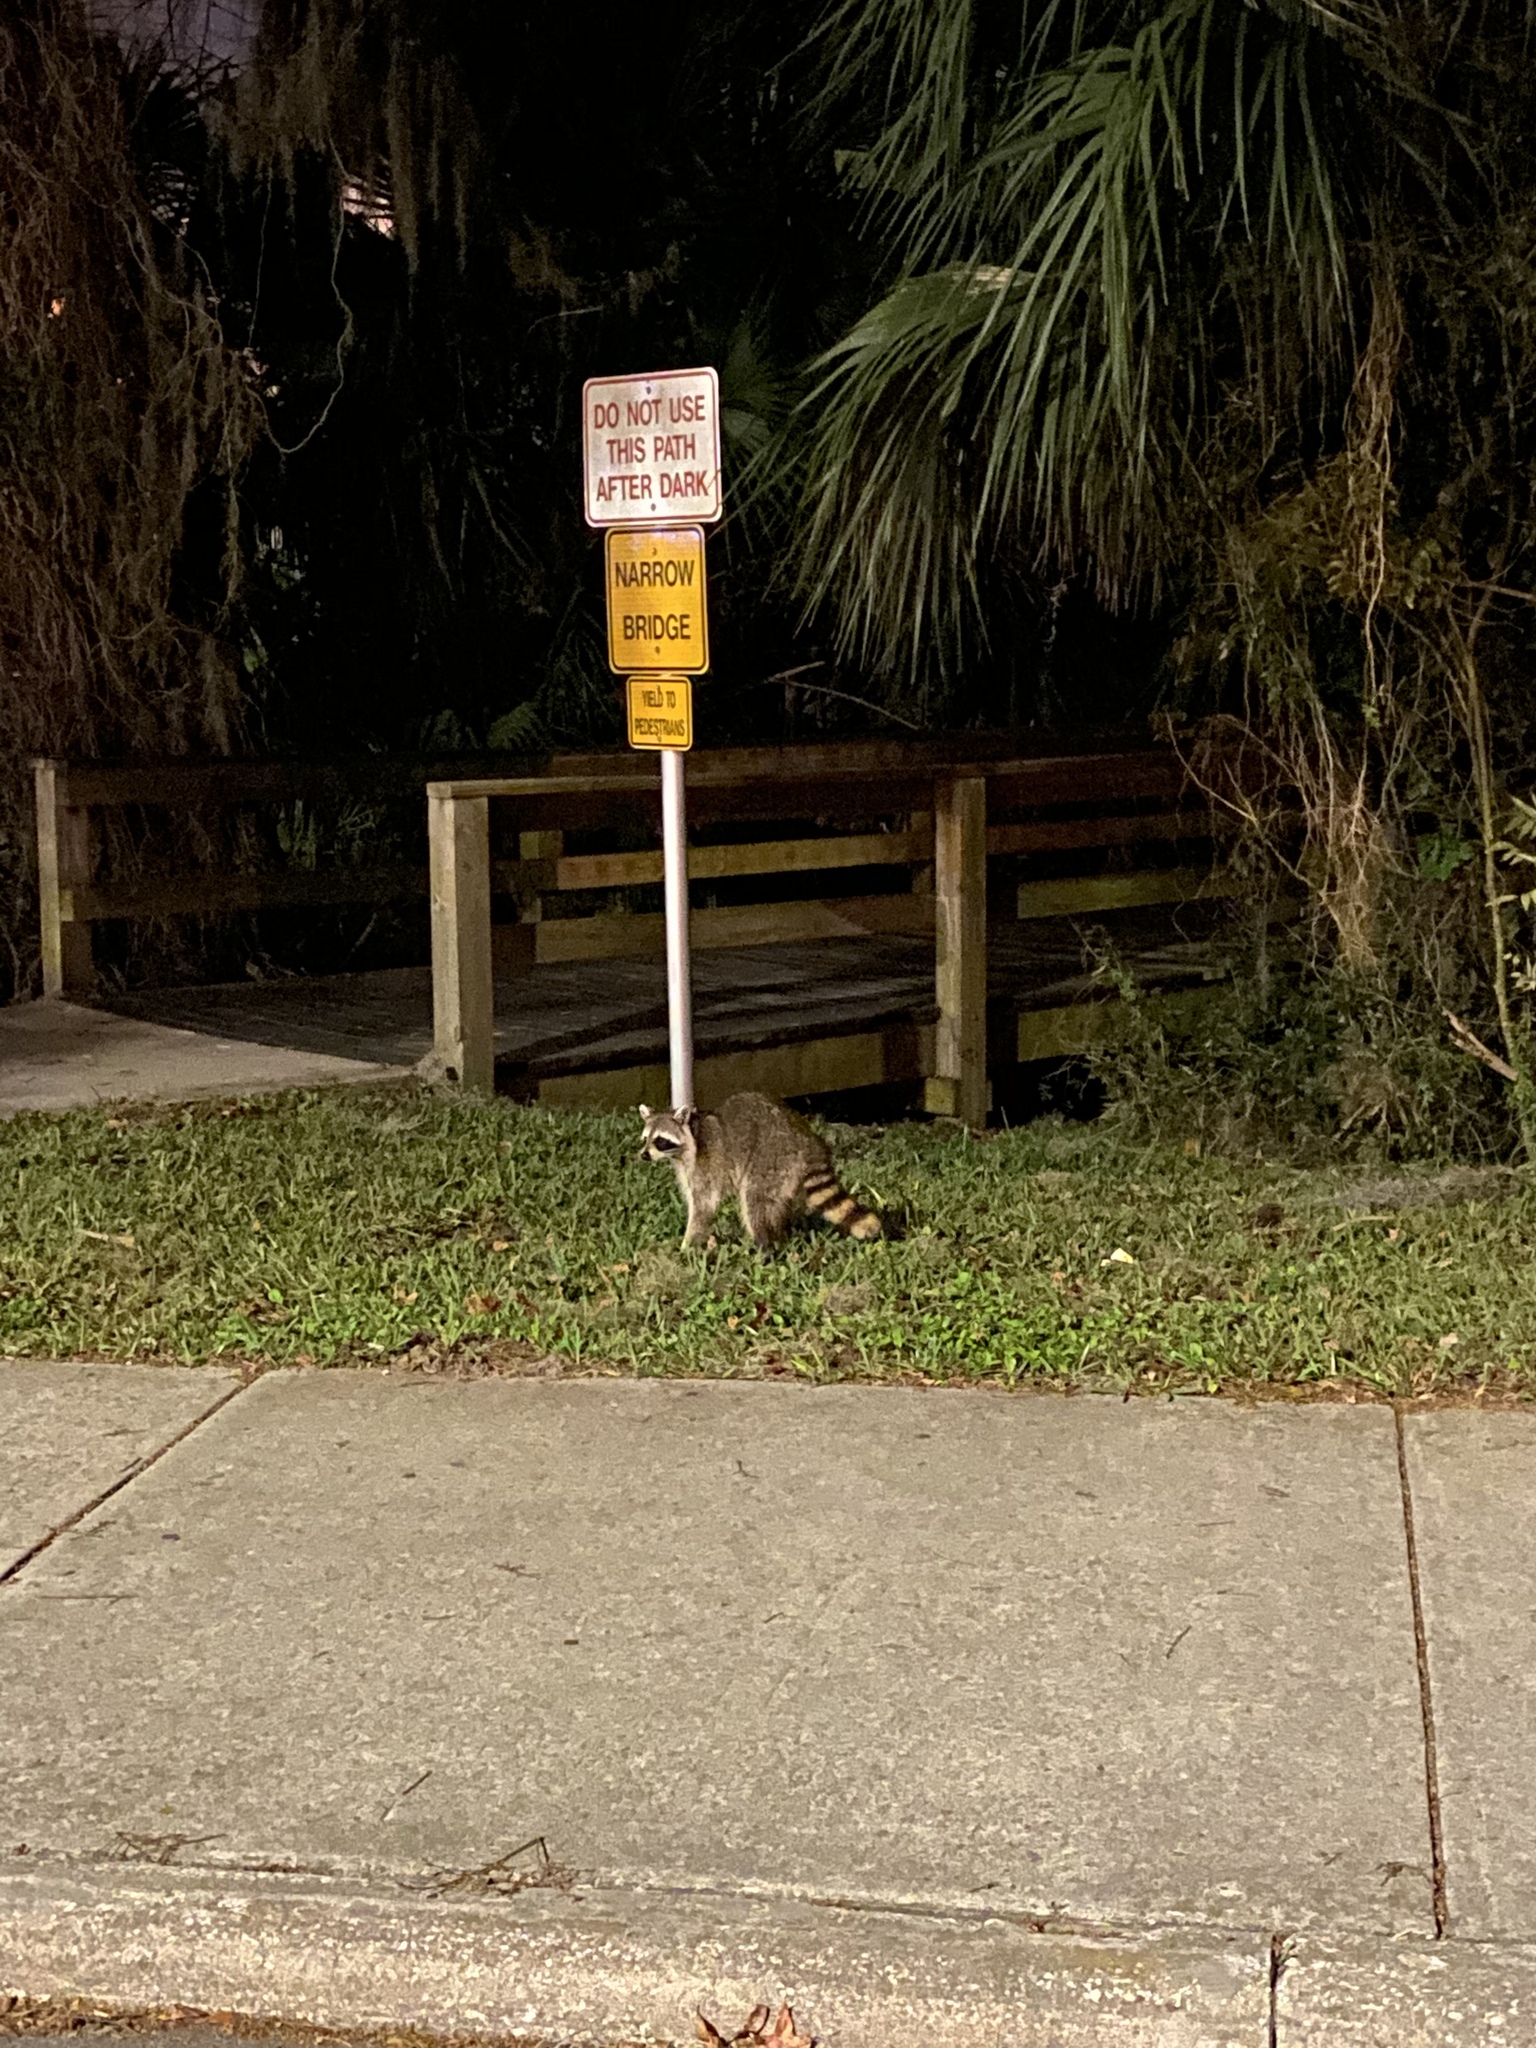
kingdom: Animalia
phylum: Chordata
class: Mammalia
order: Carnivora
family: Procyonidae
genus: Procyon
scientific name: Procyon lotor
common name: Raccoon
